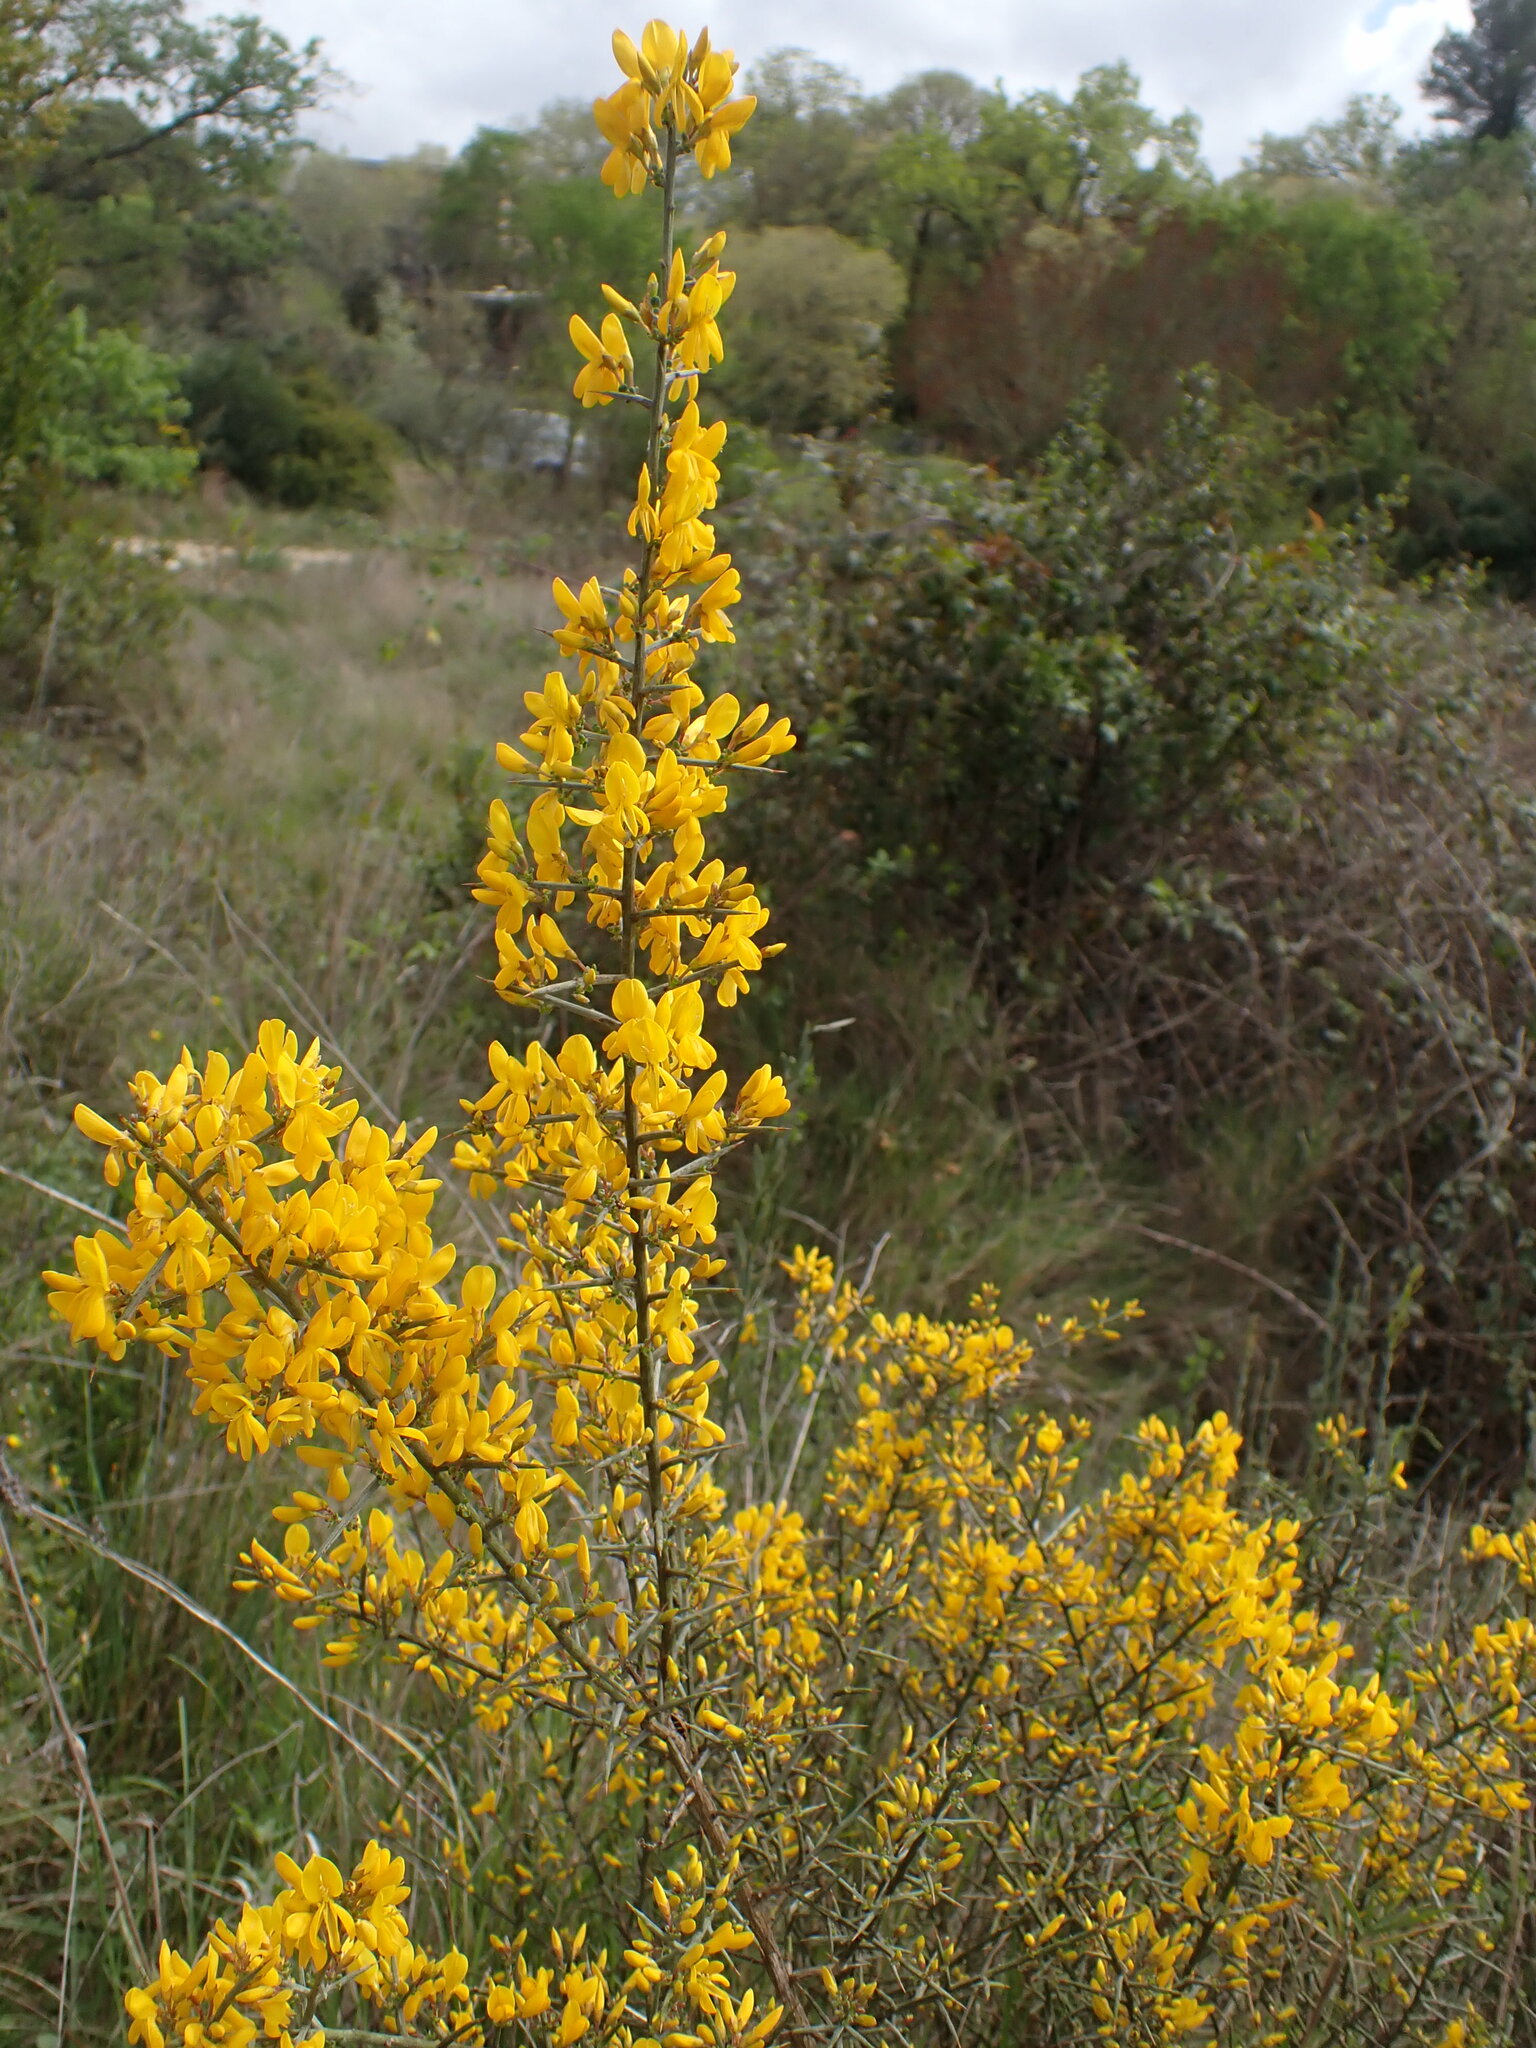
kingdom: Plantae
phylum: Tracheophyta
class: Magnoliopsida
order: Fabales
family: Fabaceae
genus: Genista
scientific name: Genista scorpius
